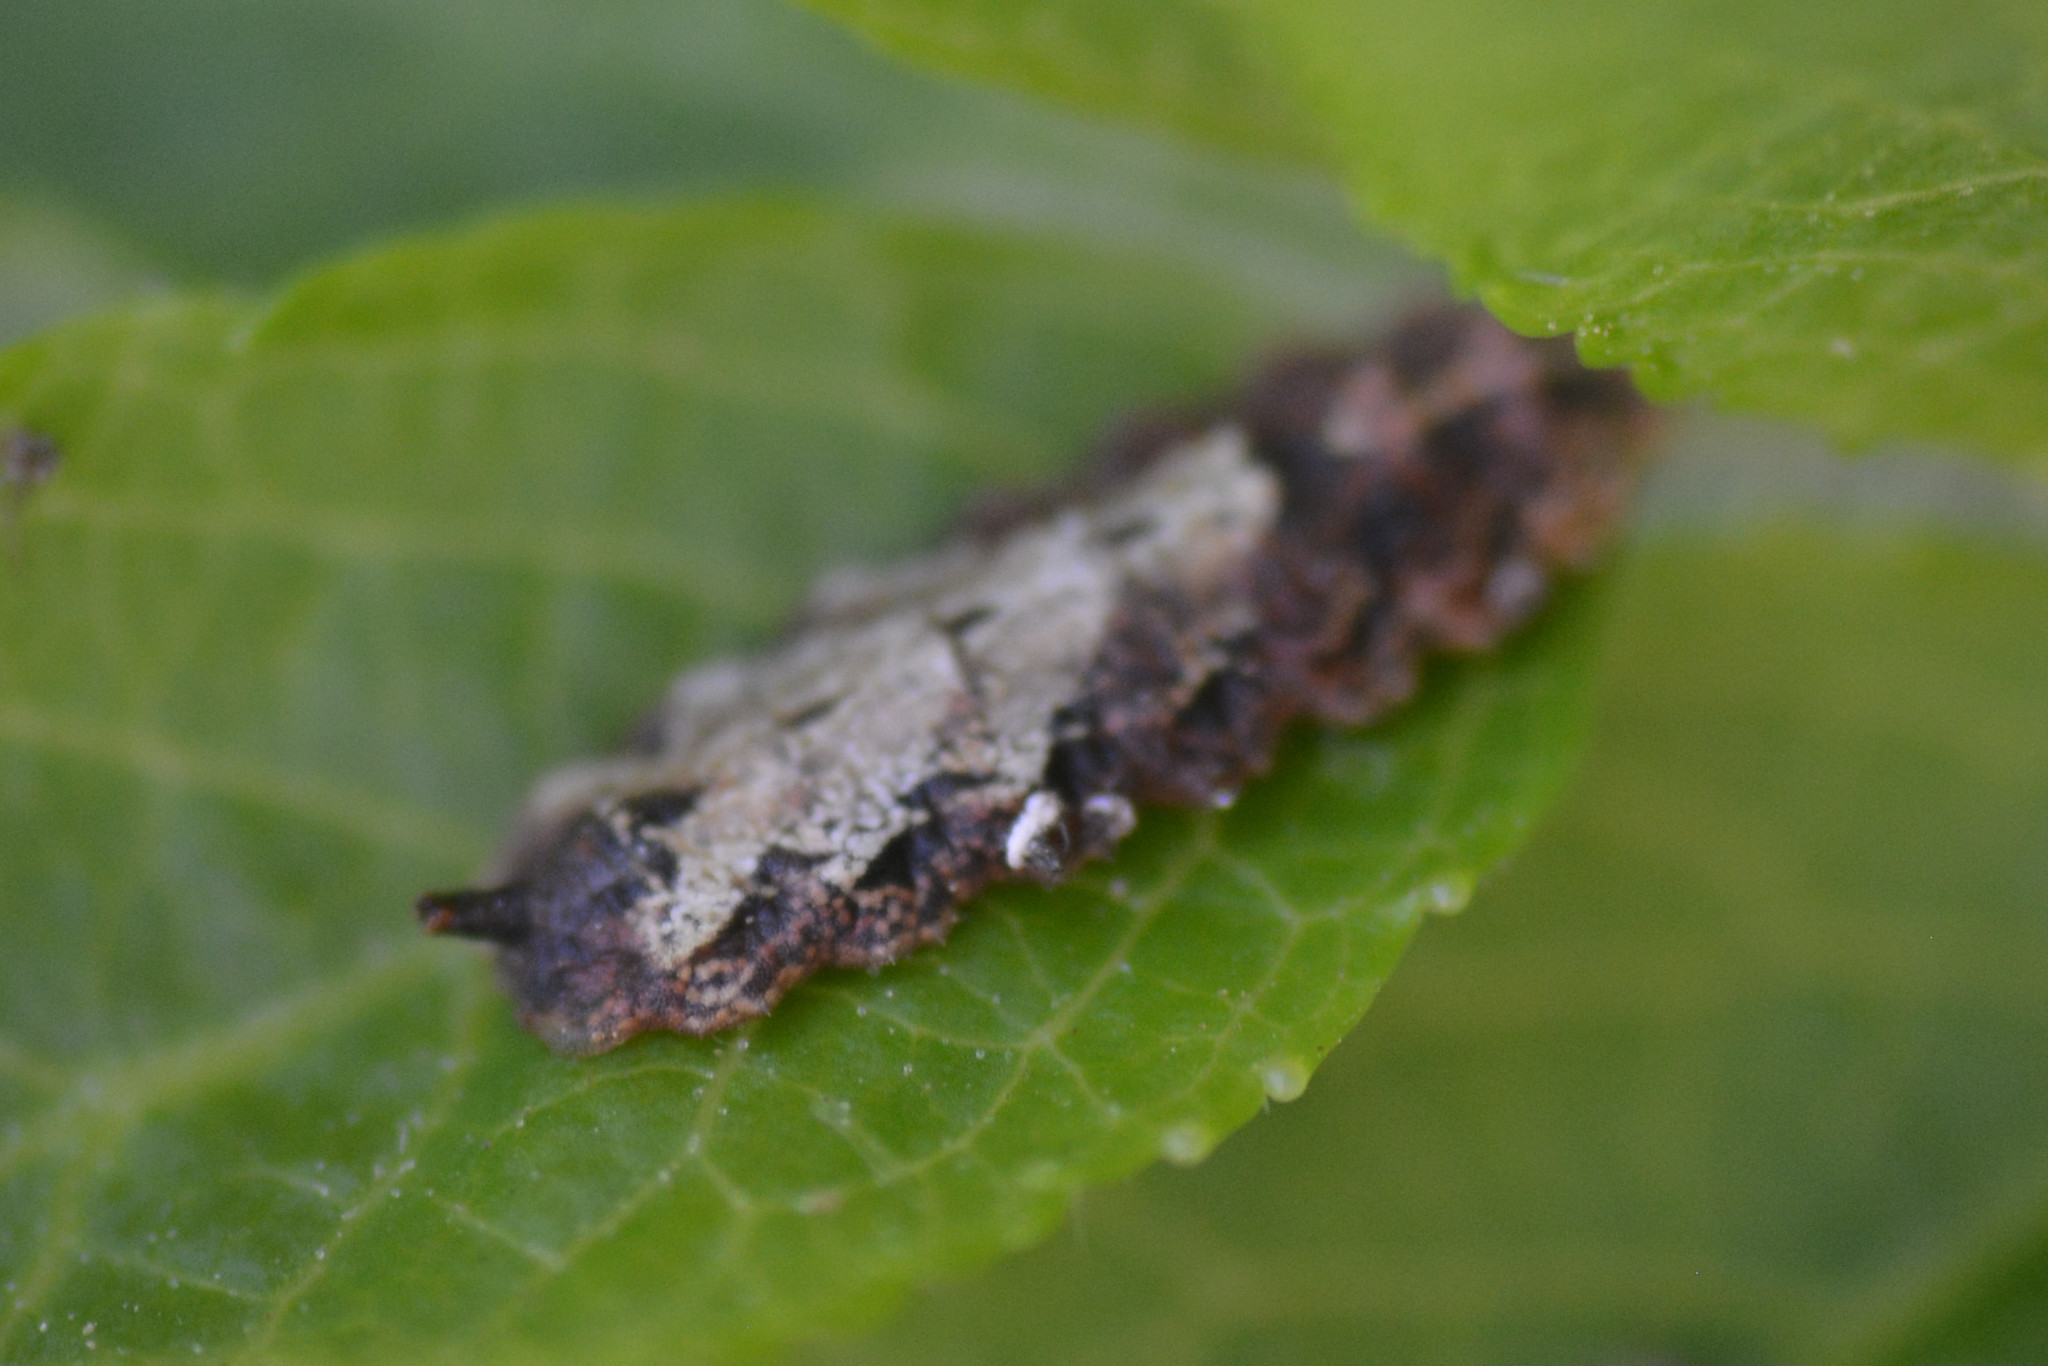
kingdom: Animalia
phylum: Arthropoda
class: Insecta
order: Diptera
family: Syrphidae
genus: Meligramma
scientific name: Meligramma triangulifera
